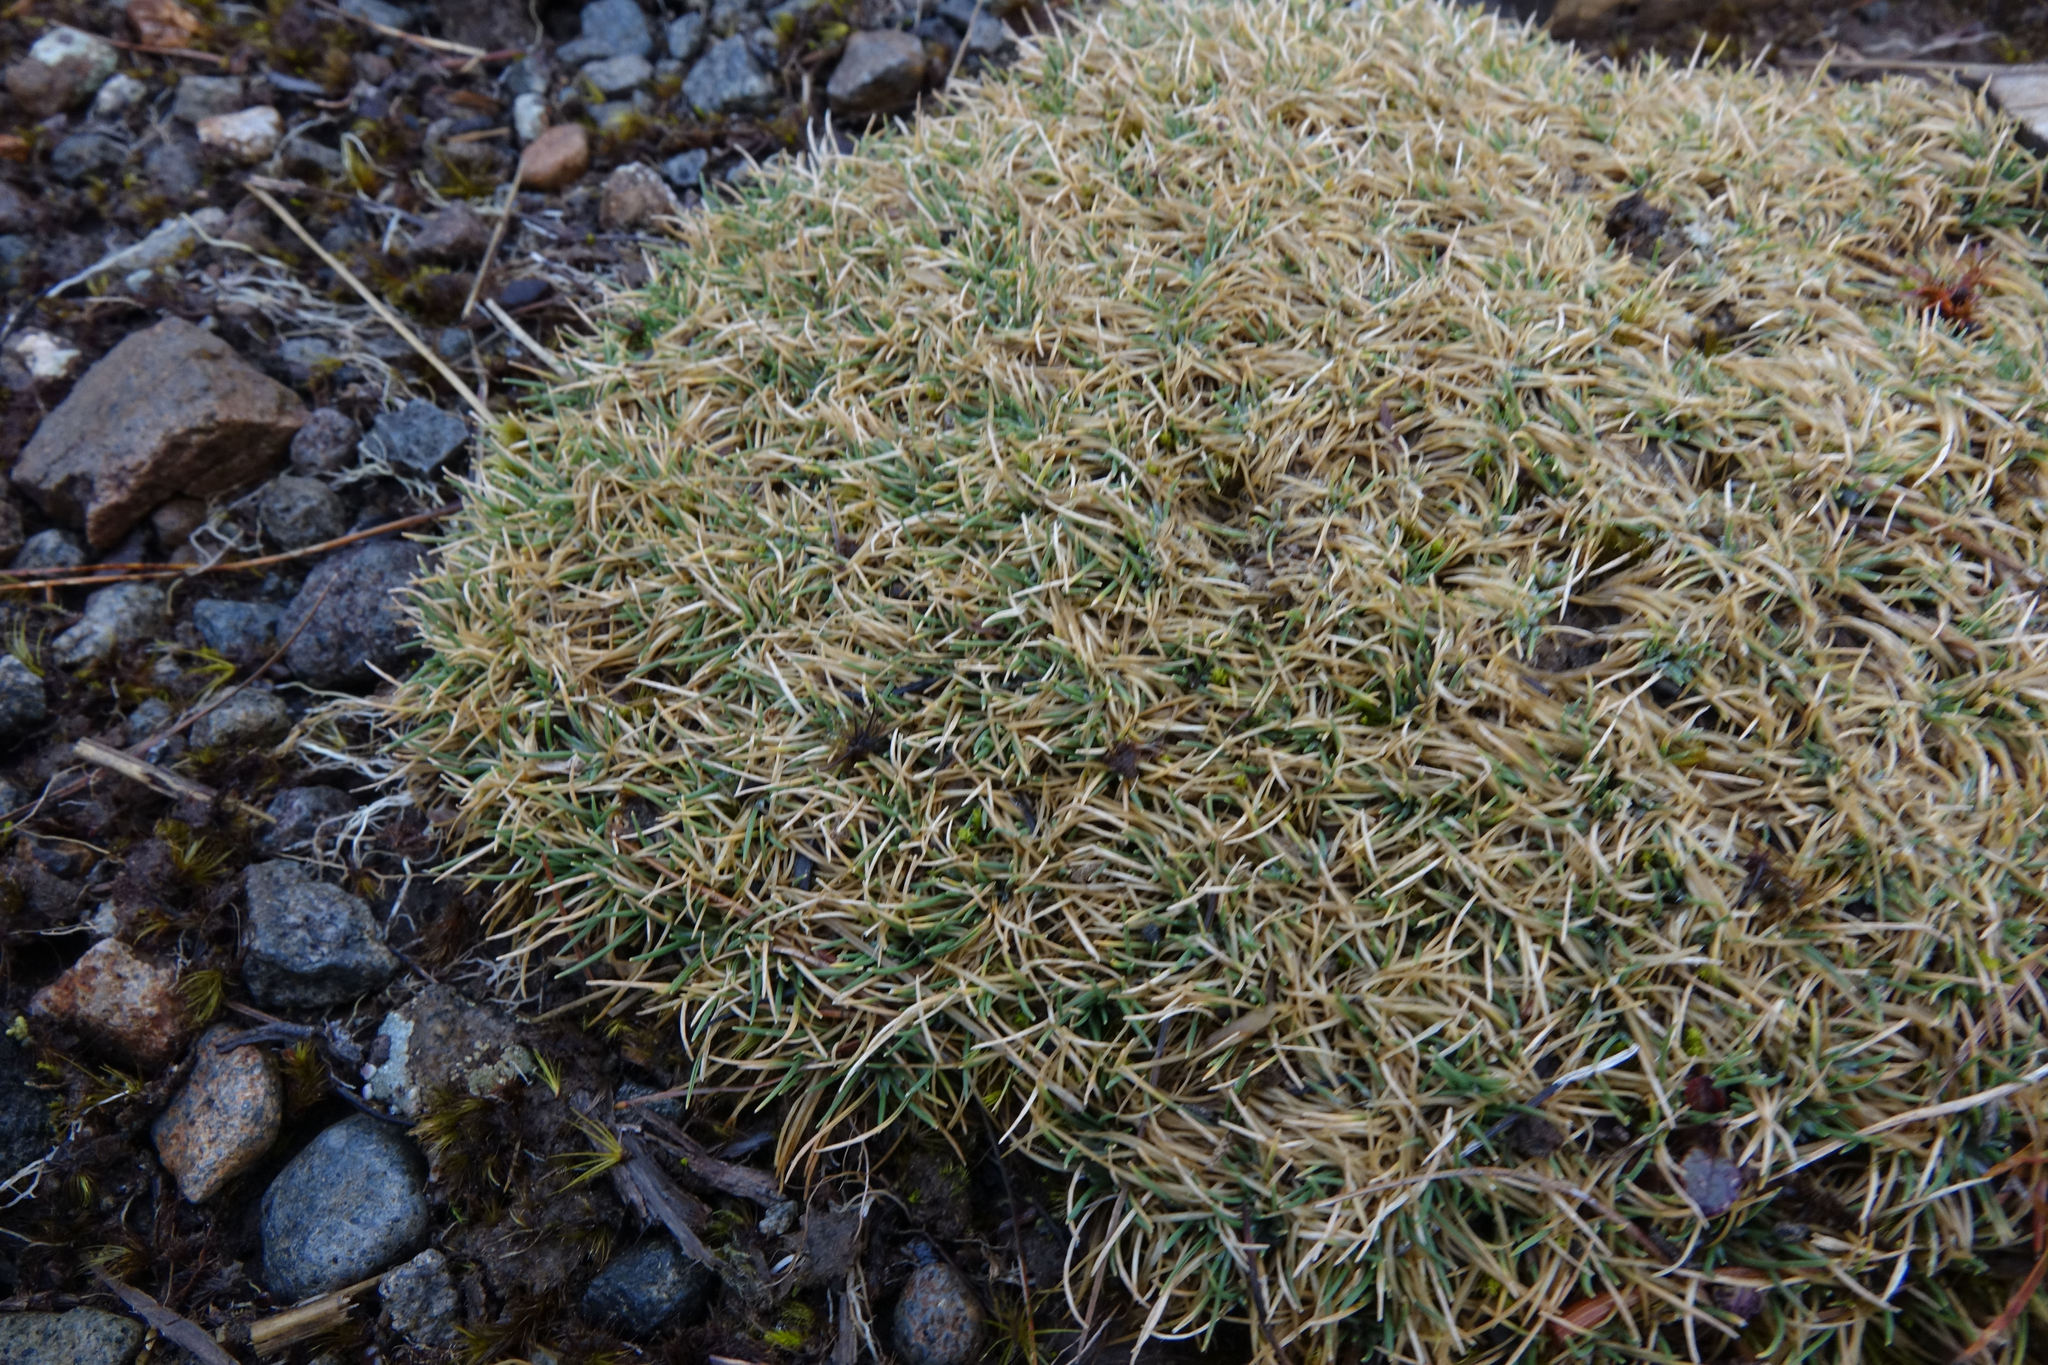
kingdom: Plantae
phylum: Tracheophyta
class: Liliopsida
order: Poales
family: Poaceae
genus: Agrostis
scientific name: Agrostis muscosa
